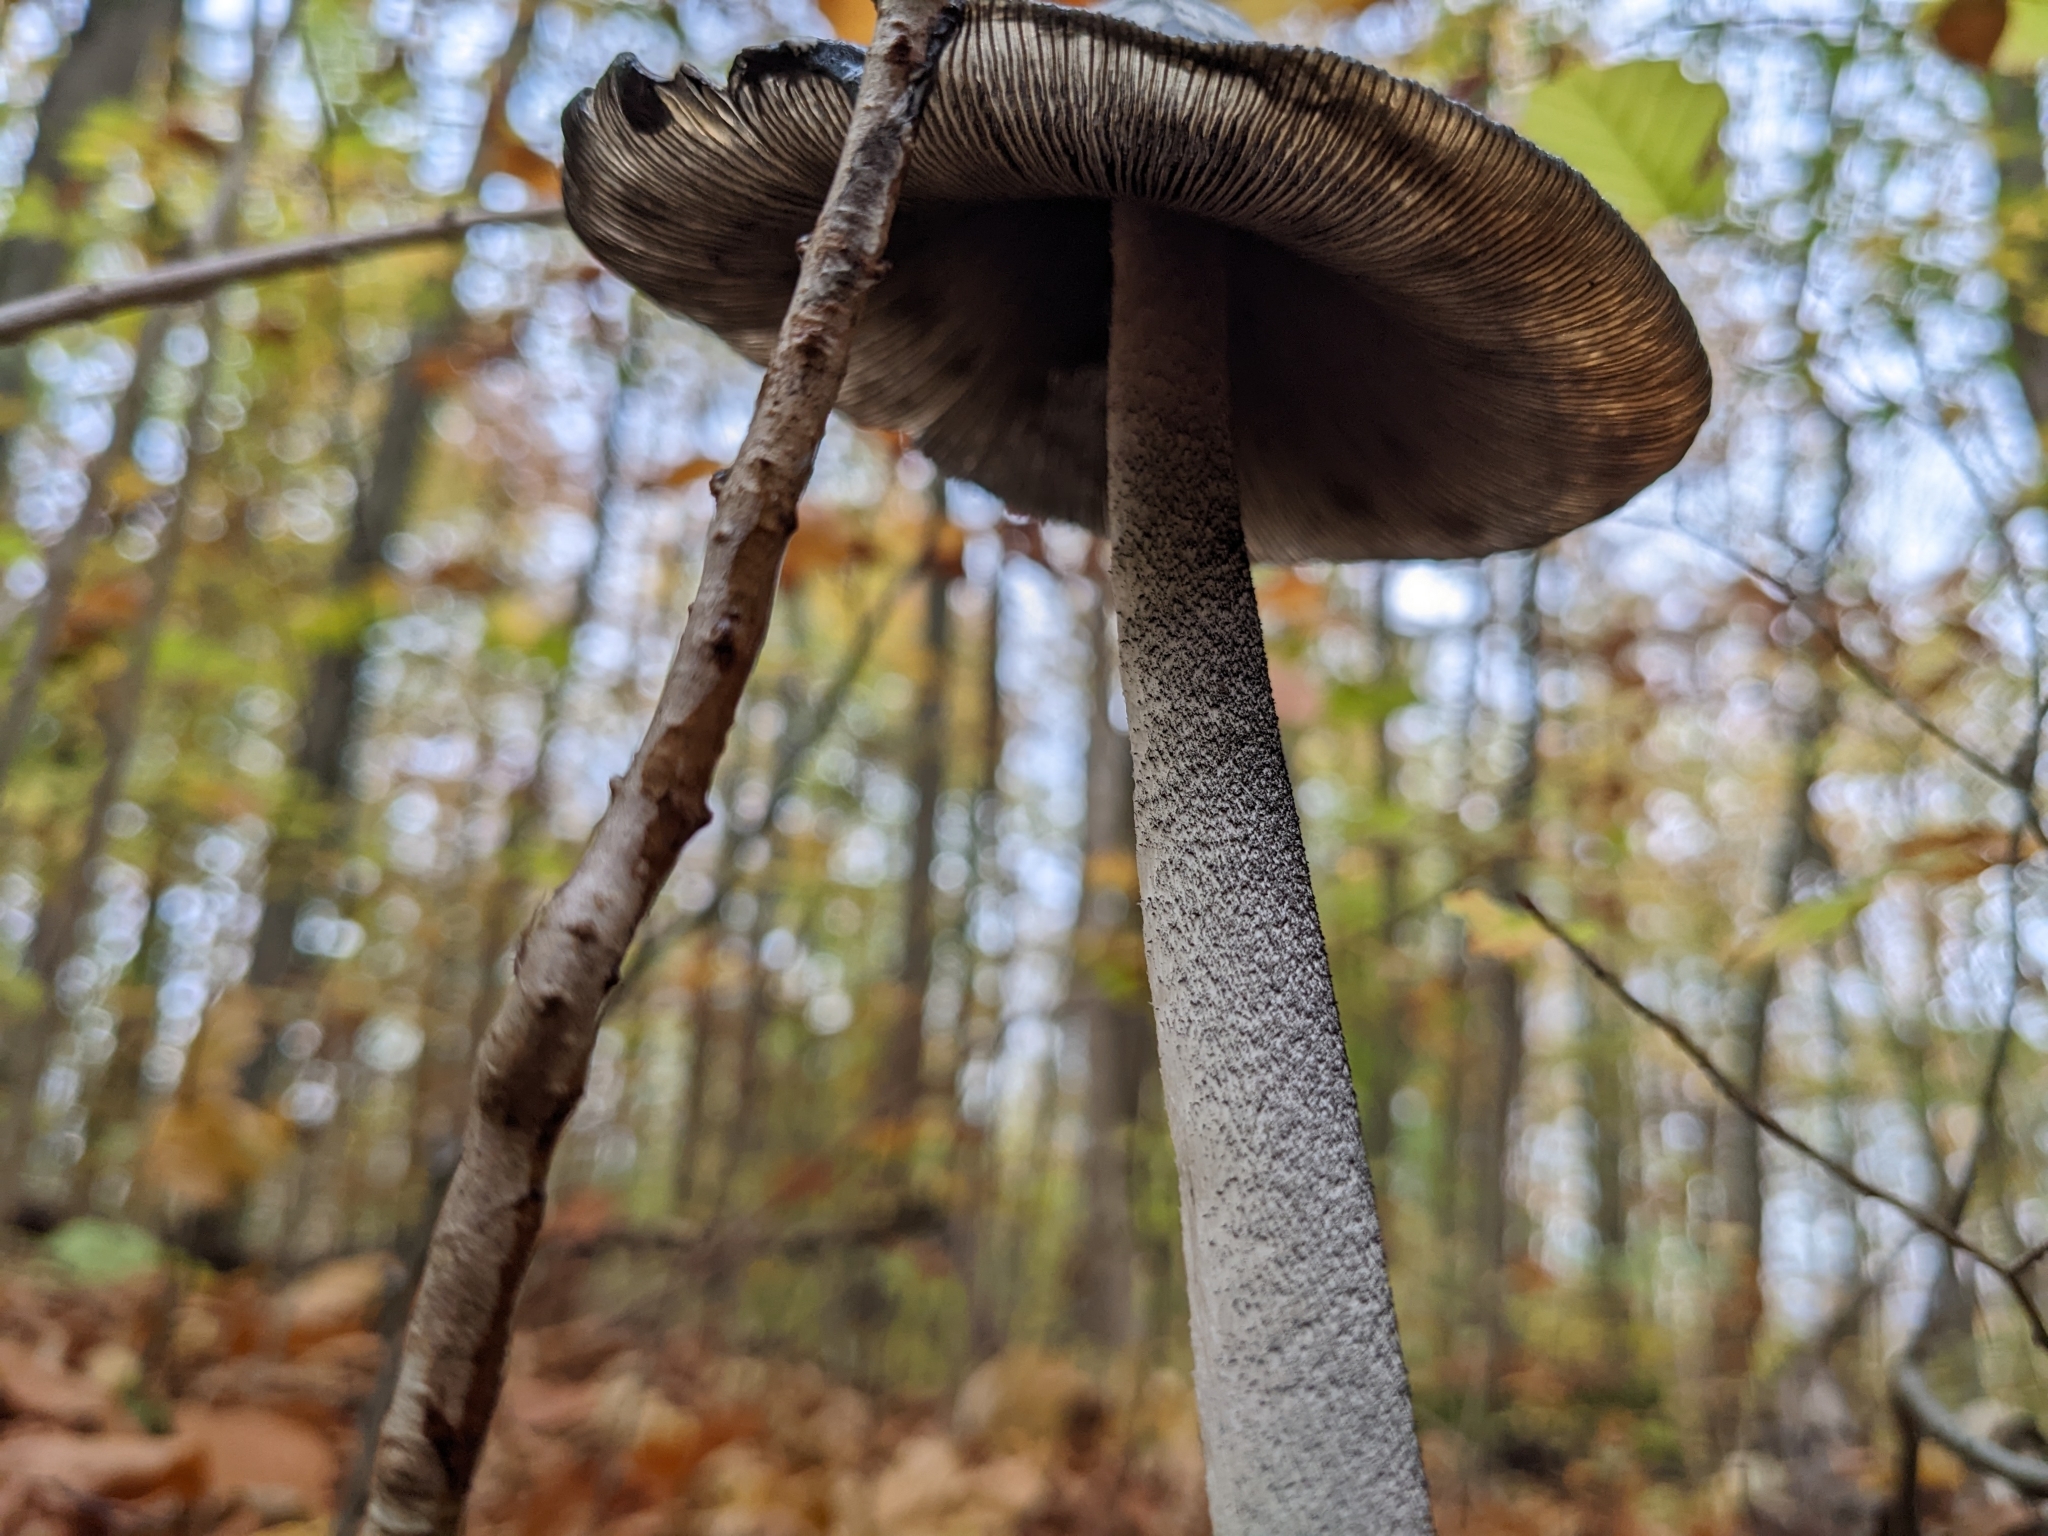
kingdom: Fungi
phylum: Basidiomycota
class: Agaricomycetes
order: Agaricales
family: Psathyrellaceae
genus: Coprinopsis
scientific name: Coprinopsis picacea
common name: Magpie inkcap
